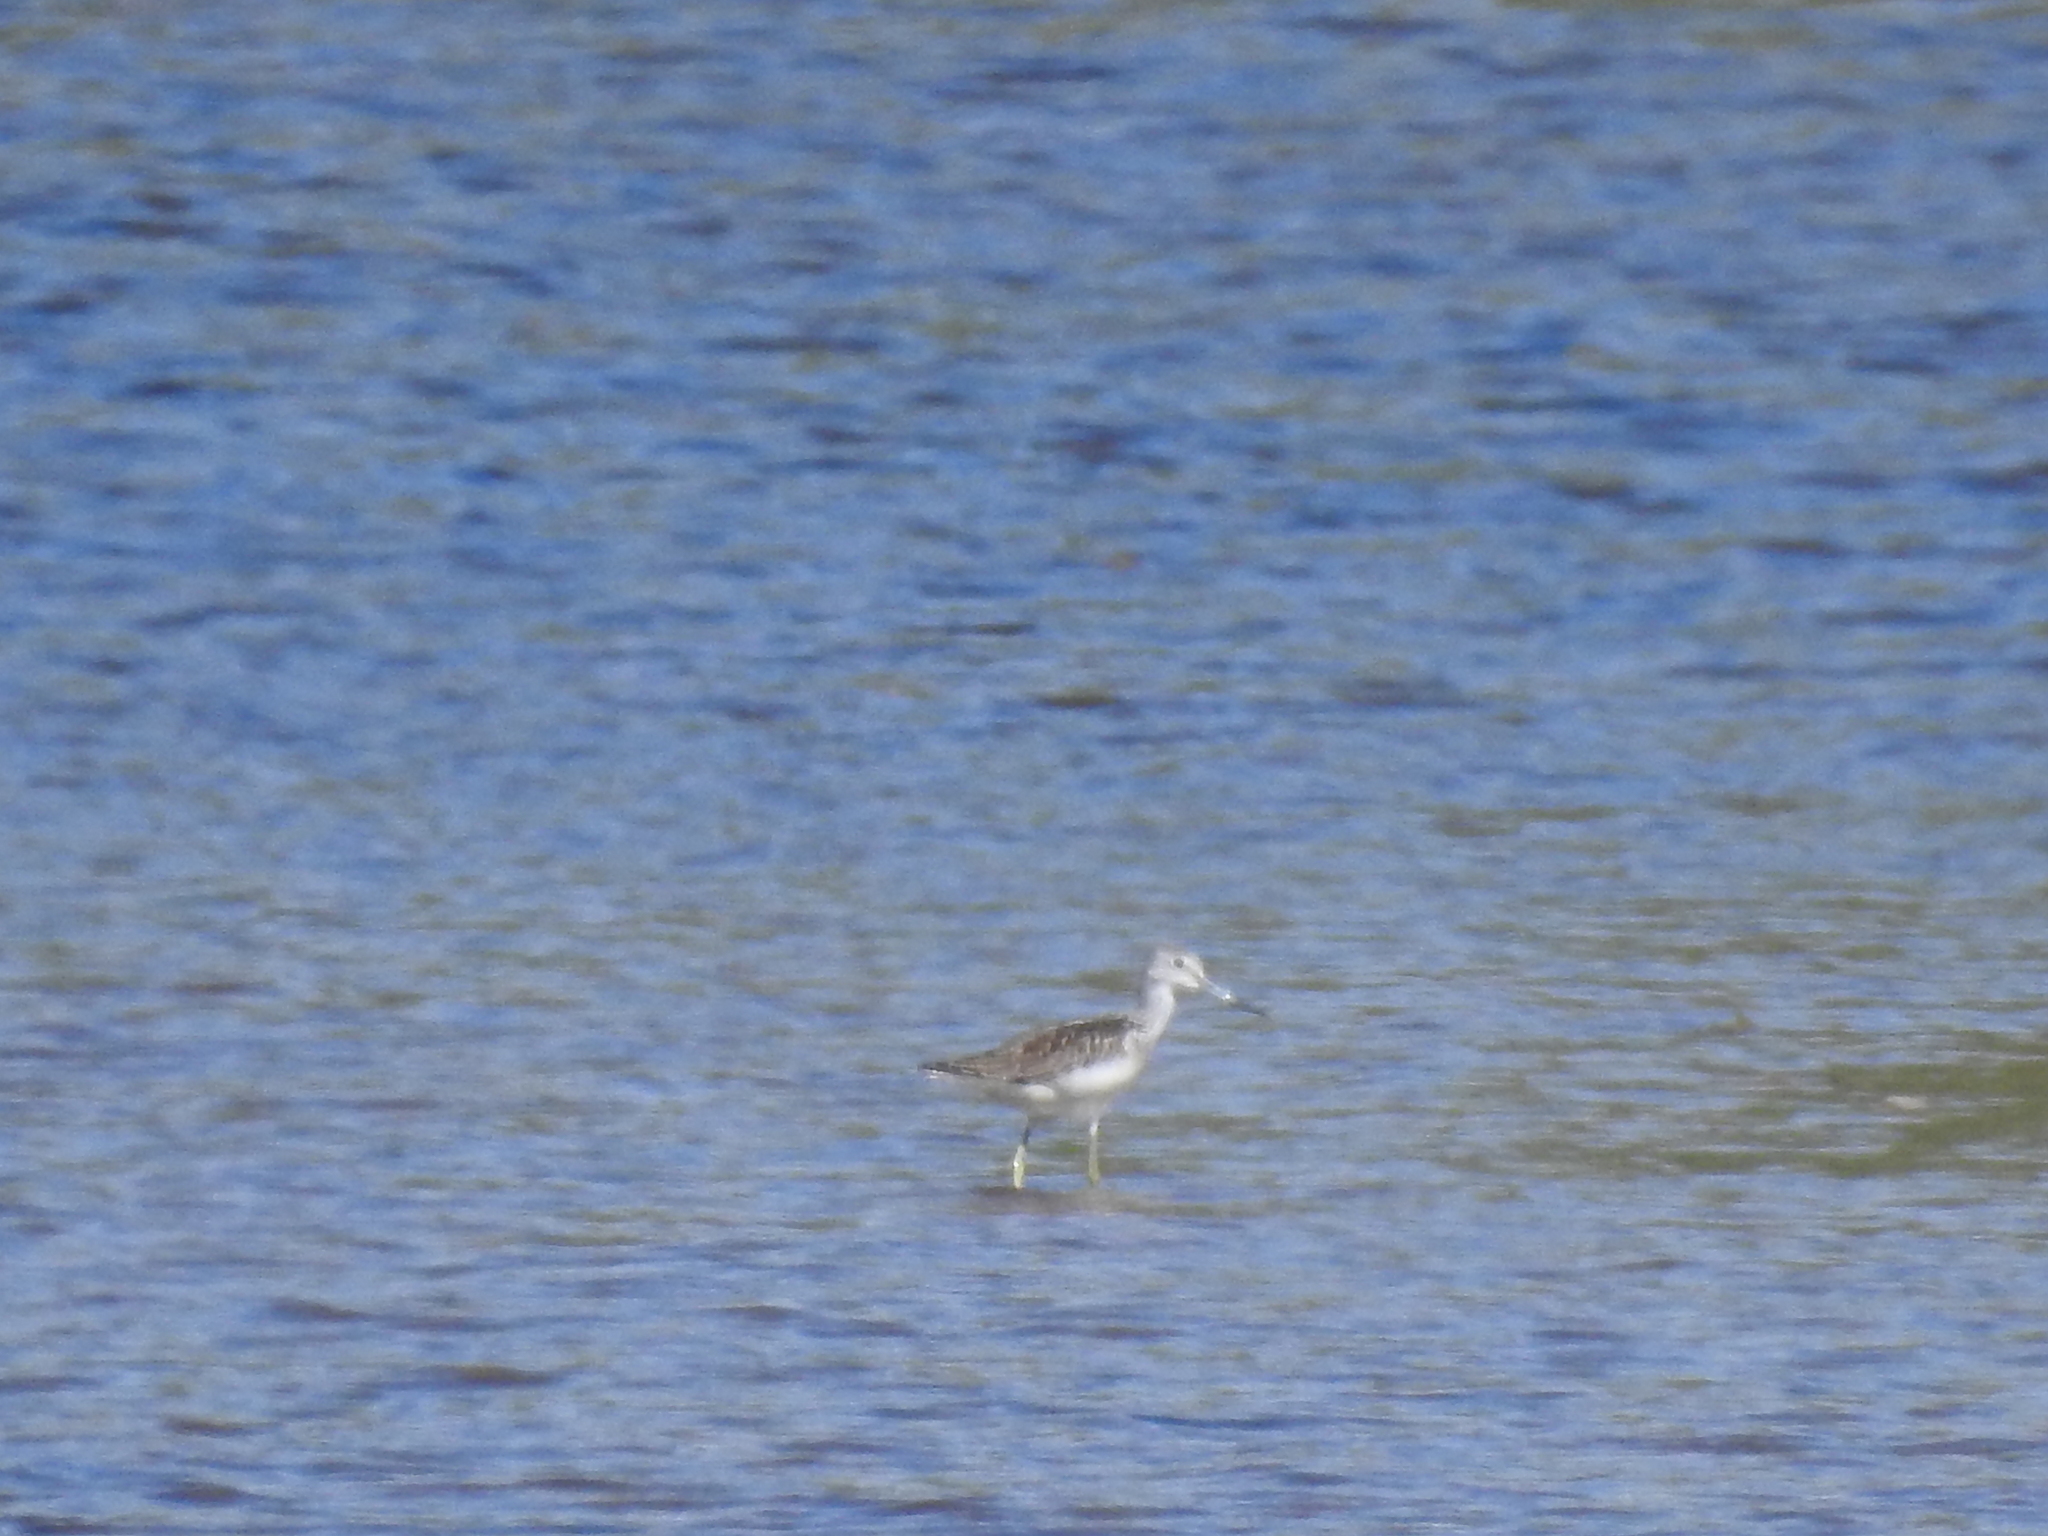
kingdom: Animalia
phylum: Chordata
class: Aves
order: Charadriiformes
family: Scolopacidae
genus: Tringa
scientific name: Tringa nebularia
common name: Common greenshank
